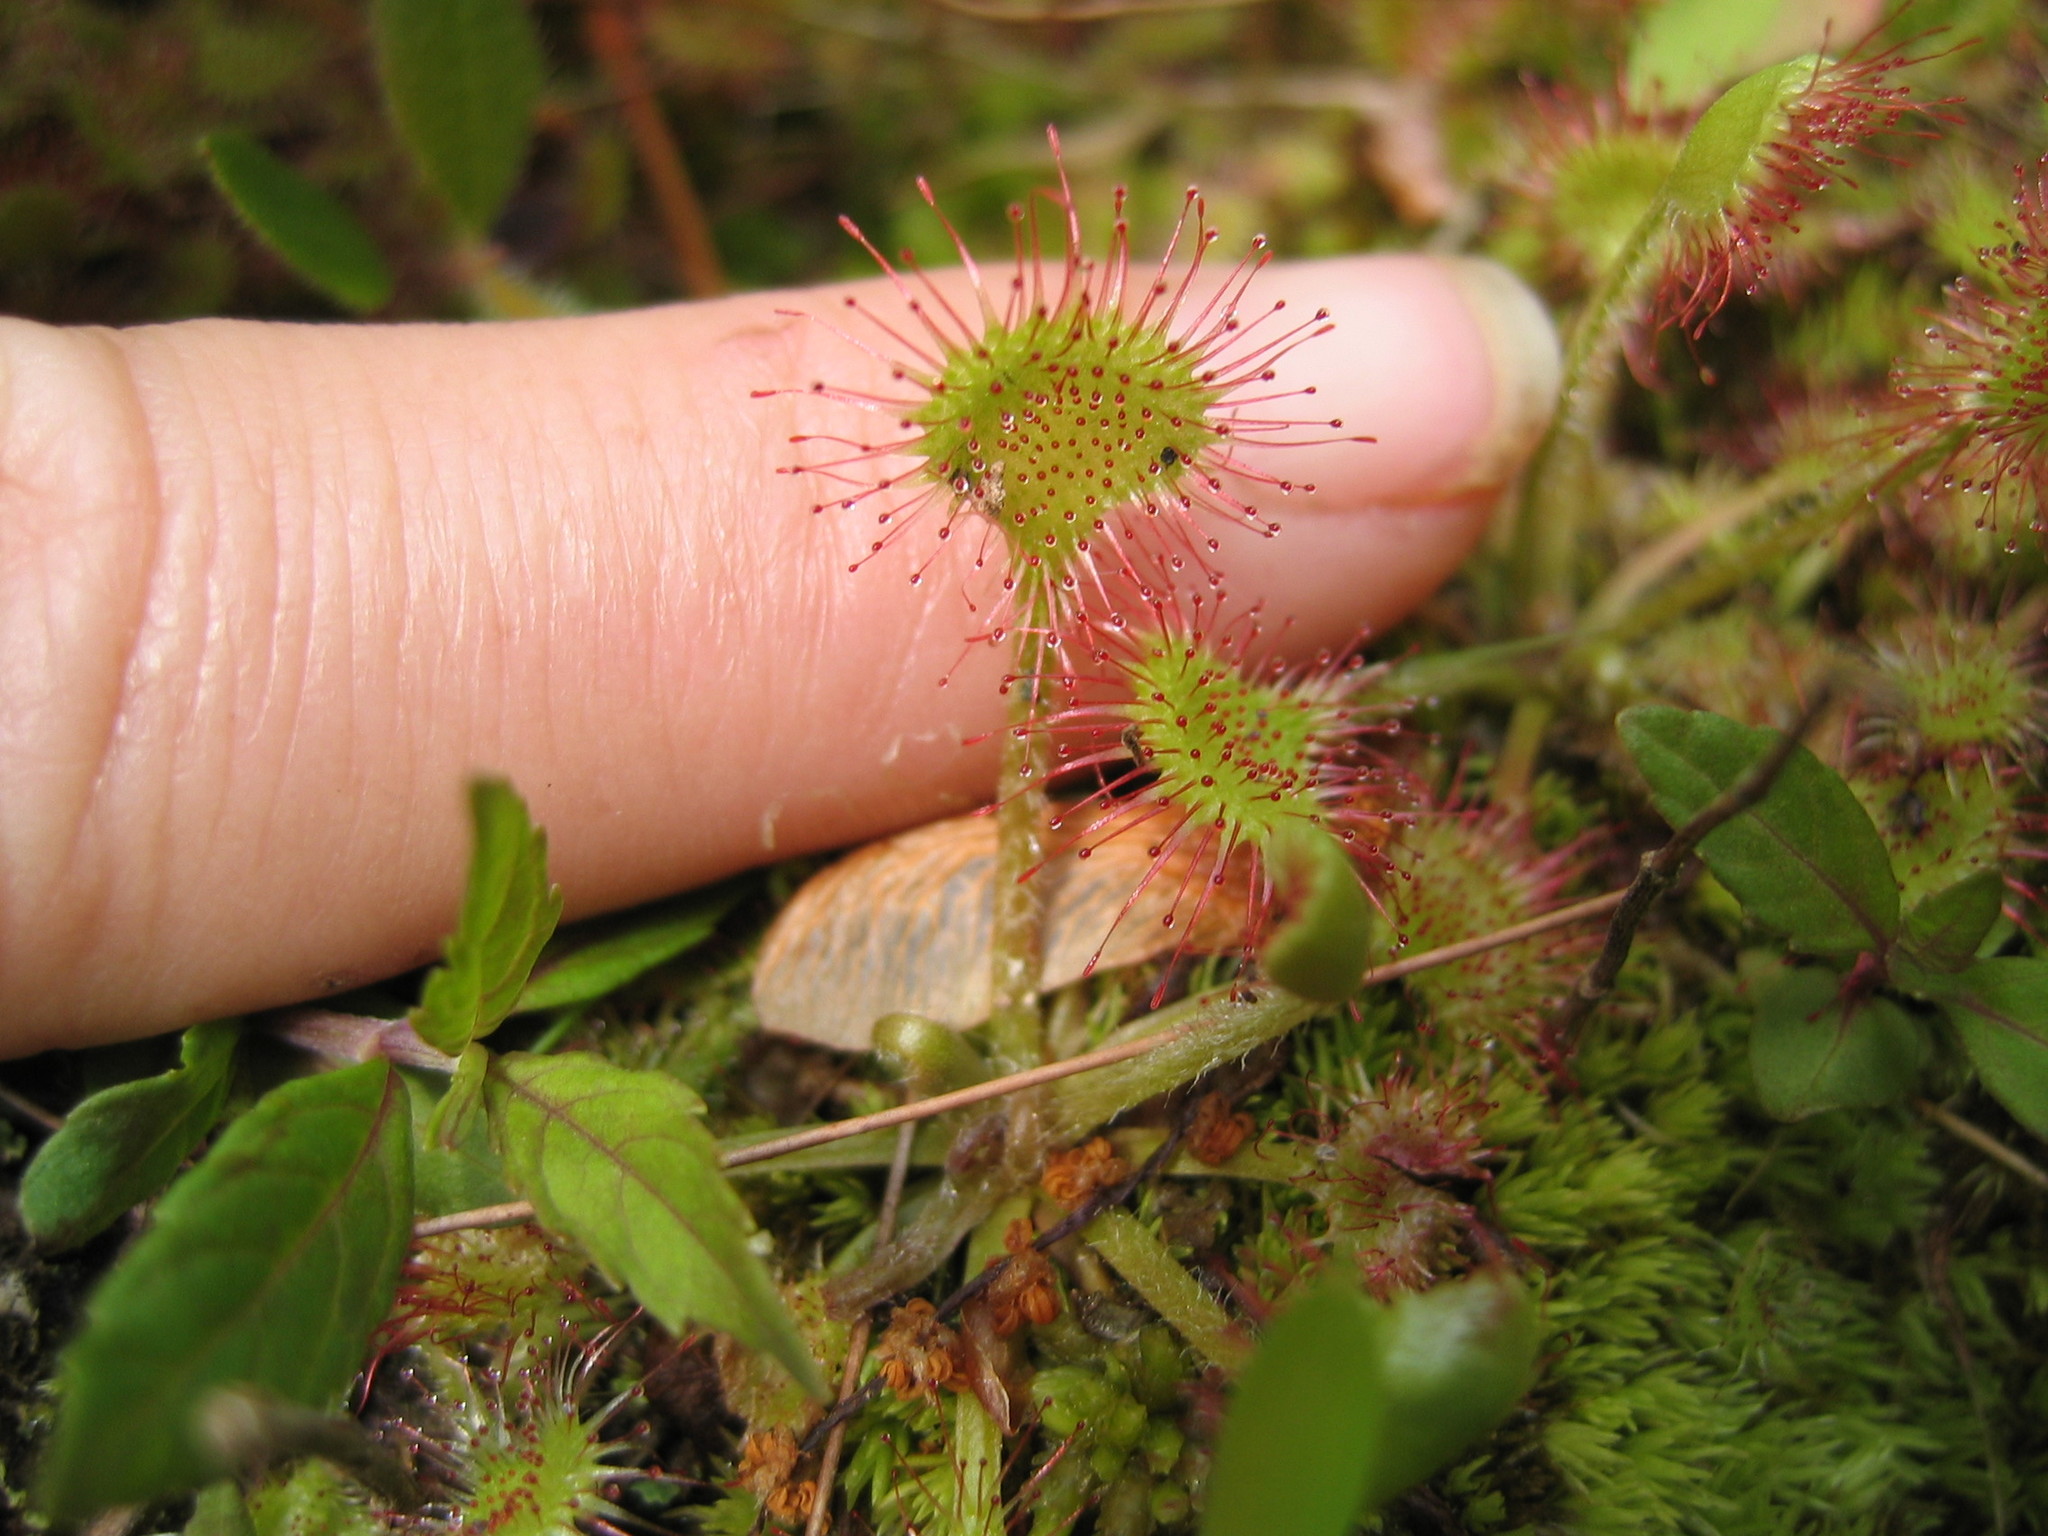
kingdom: Plantae
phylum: Tracheophyta
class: Magnoliopsida
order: Caryophyllales
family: Droseraceae
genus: Drosera
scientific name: Drosera rotundifolia
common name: Round-leaved sundew
